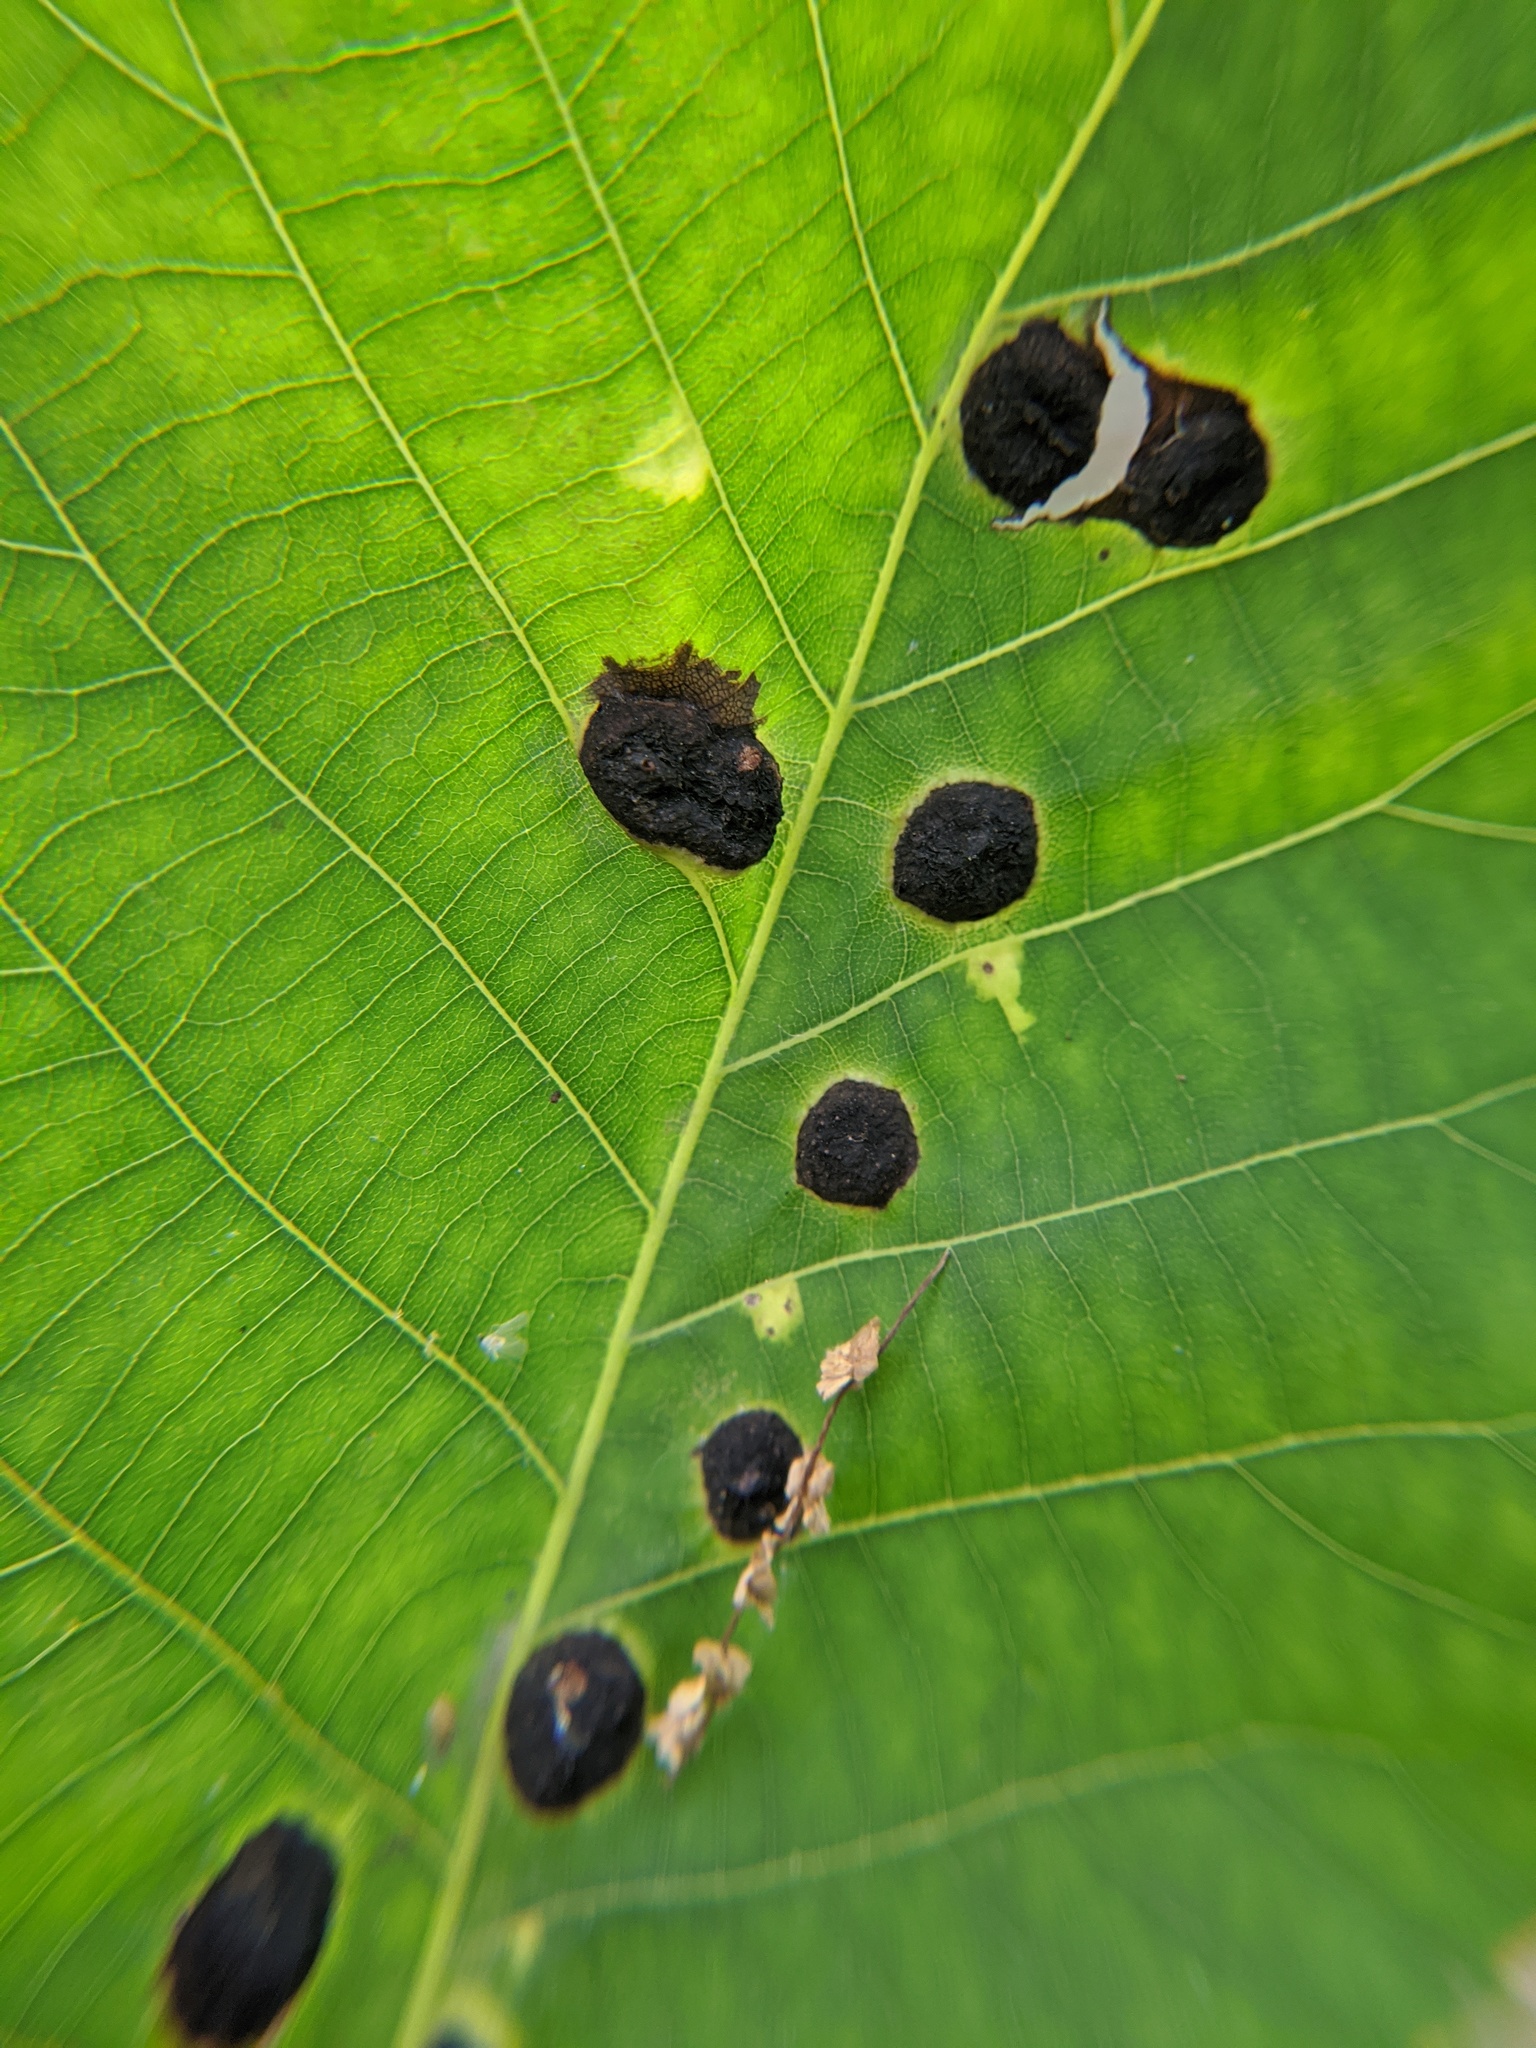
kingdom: Animalia
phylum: Arthropoda
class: Insecta
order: Hemiptera
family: Phylloxeridae
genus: Phylloxera
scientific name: Phylloxera caryae-globuli
